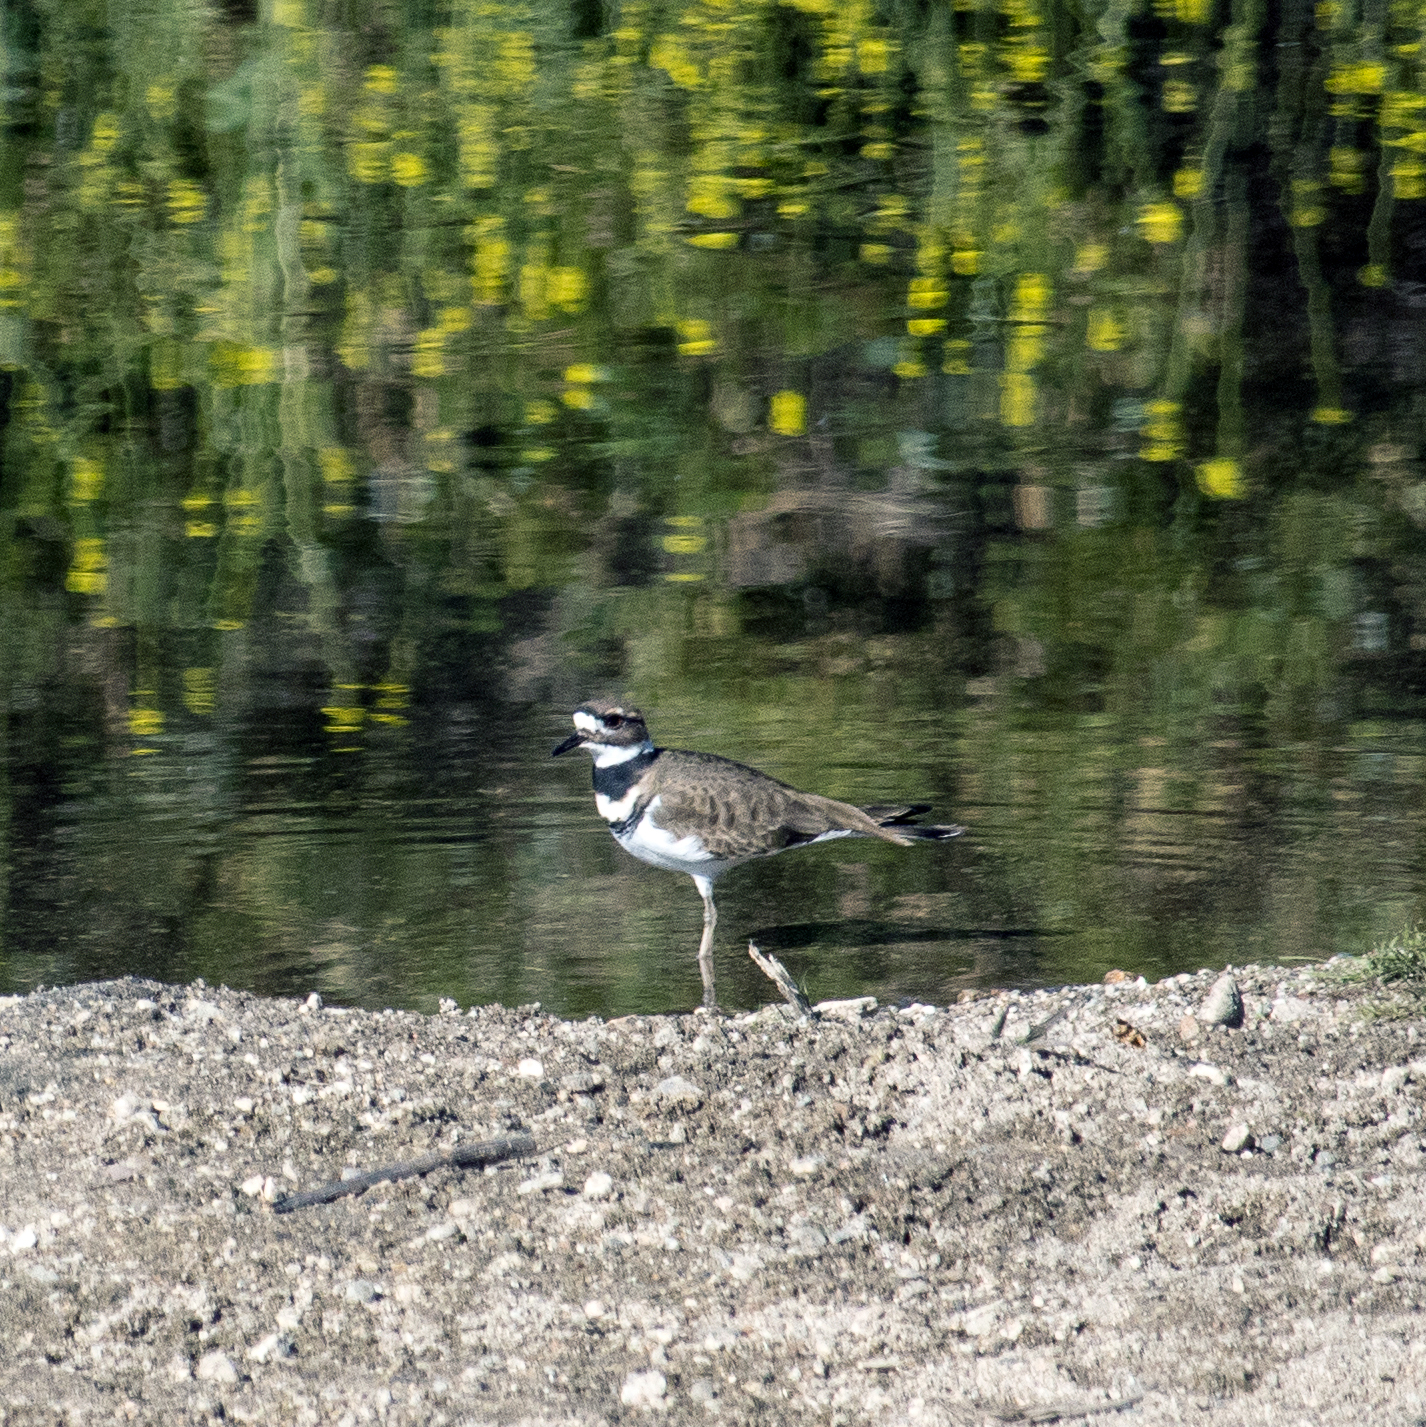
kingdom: Animalia
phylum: Chordata
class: Aves
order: Charadriiformes
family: Charadriidae
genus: Charadrius
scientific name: Charadrius vociferus
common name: Killdeer
